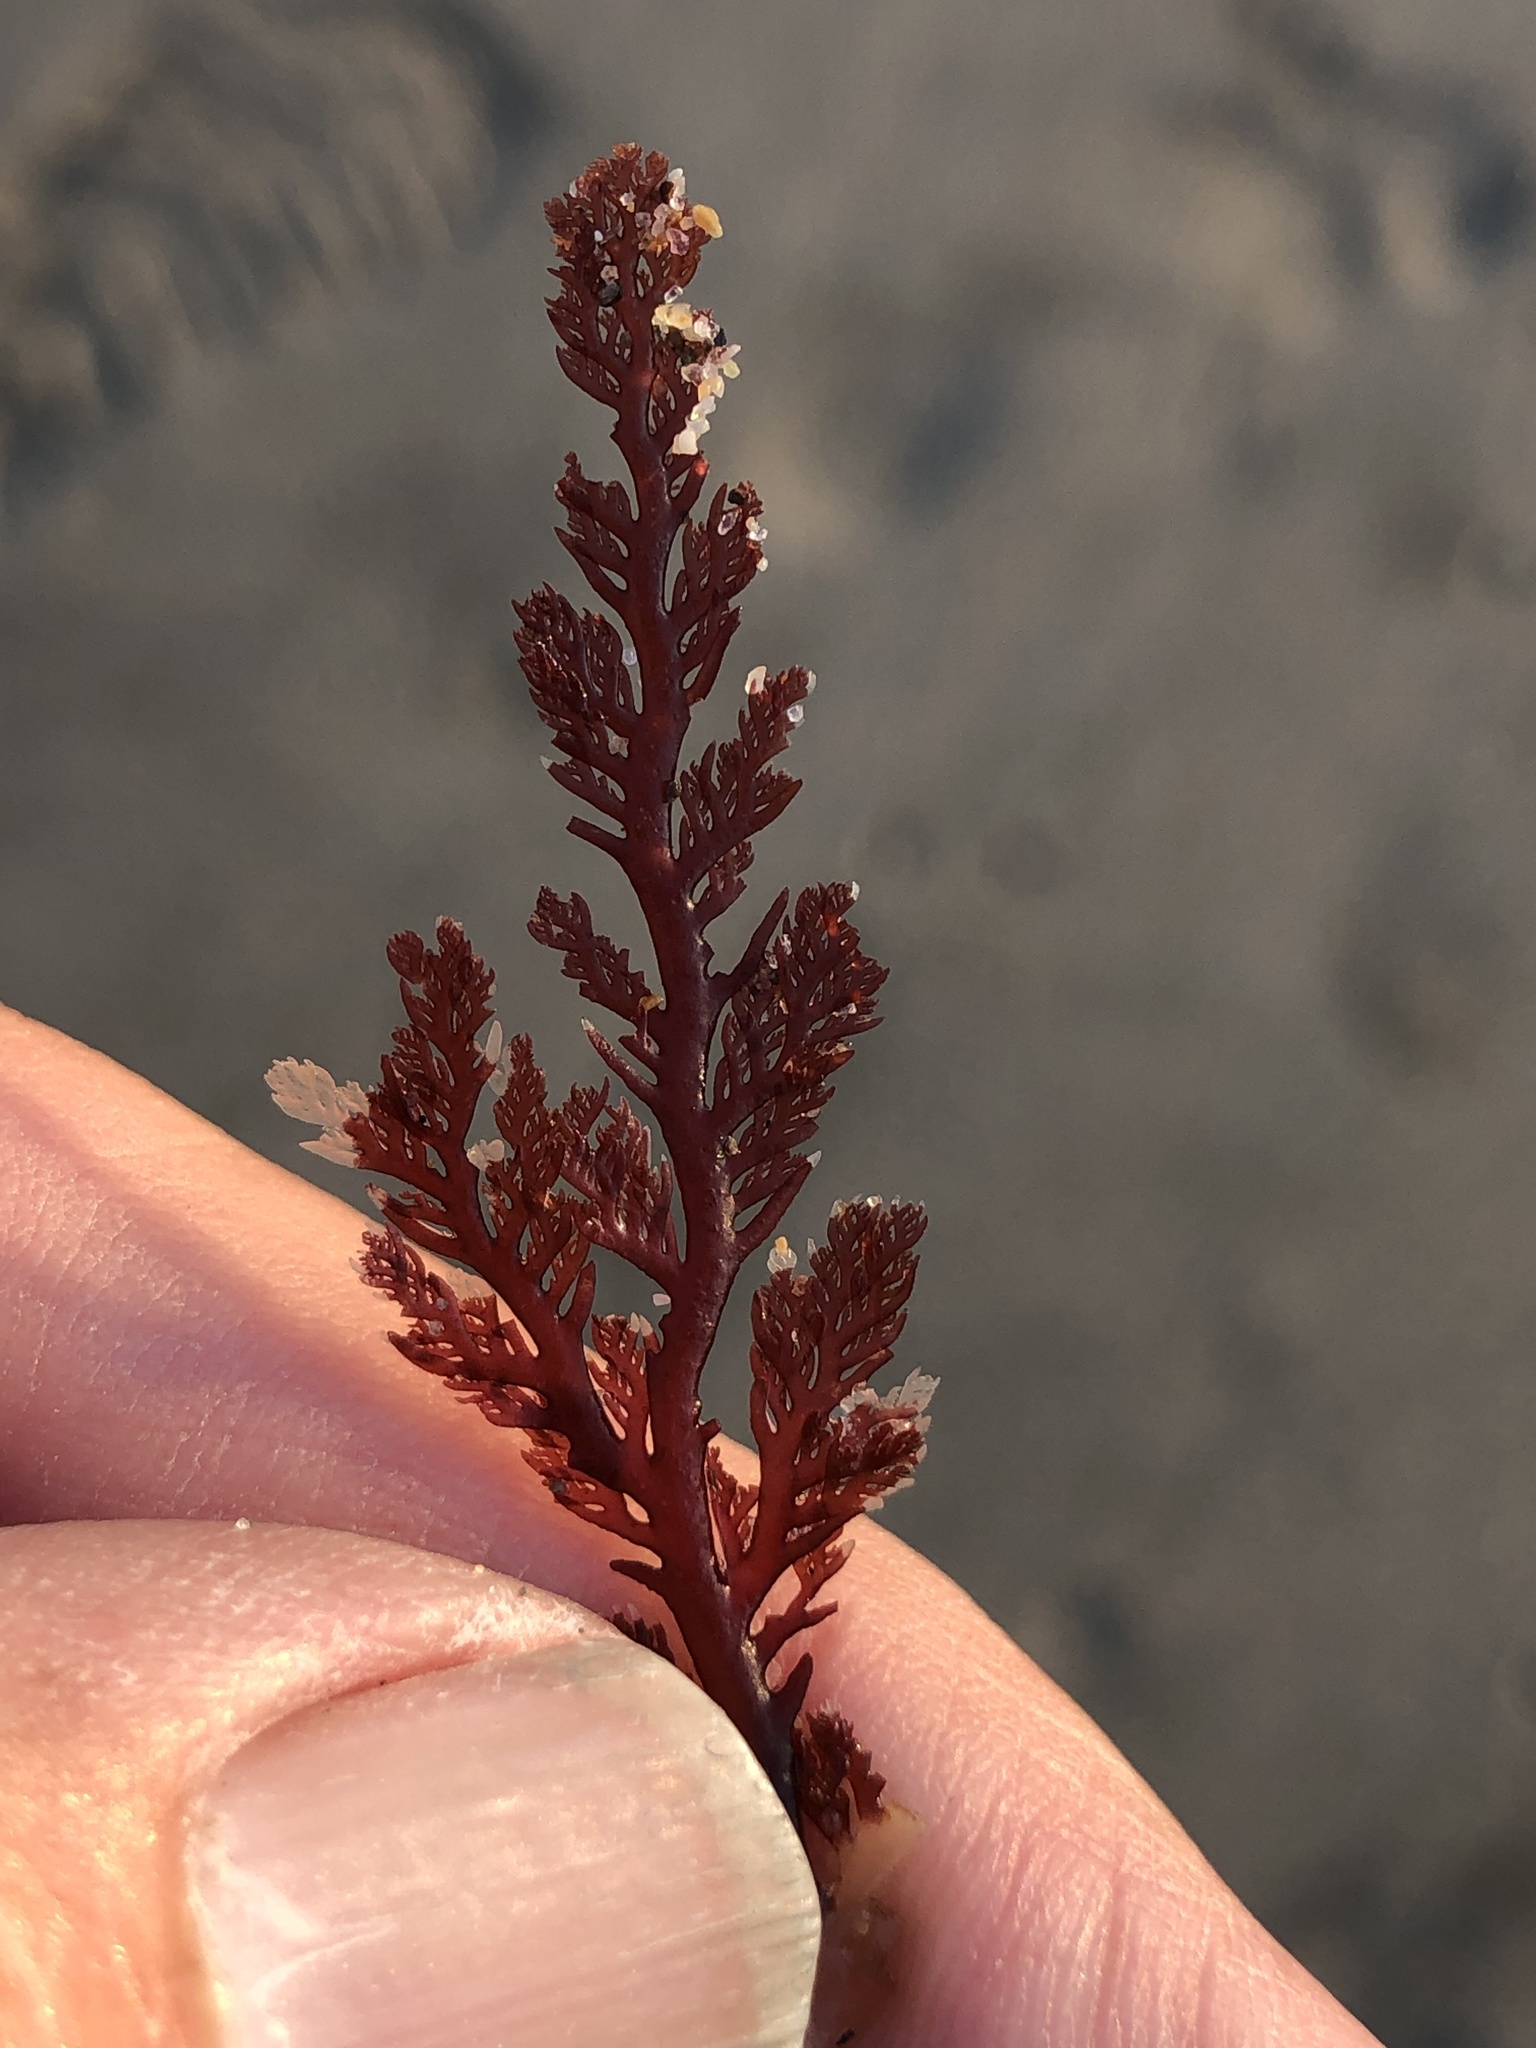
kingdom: Plantae
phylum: Rhodophyta
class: Florideophyceae
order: Plocamiales
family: Plocamiaceae
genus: Plocamium
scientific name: Plocamium cartilagineum
